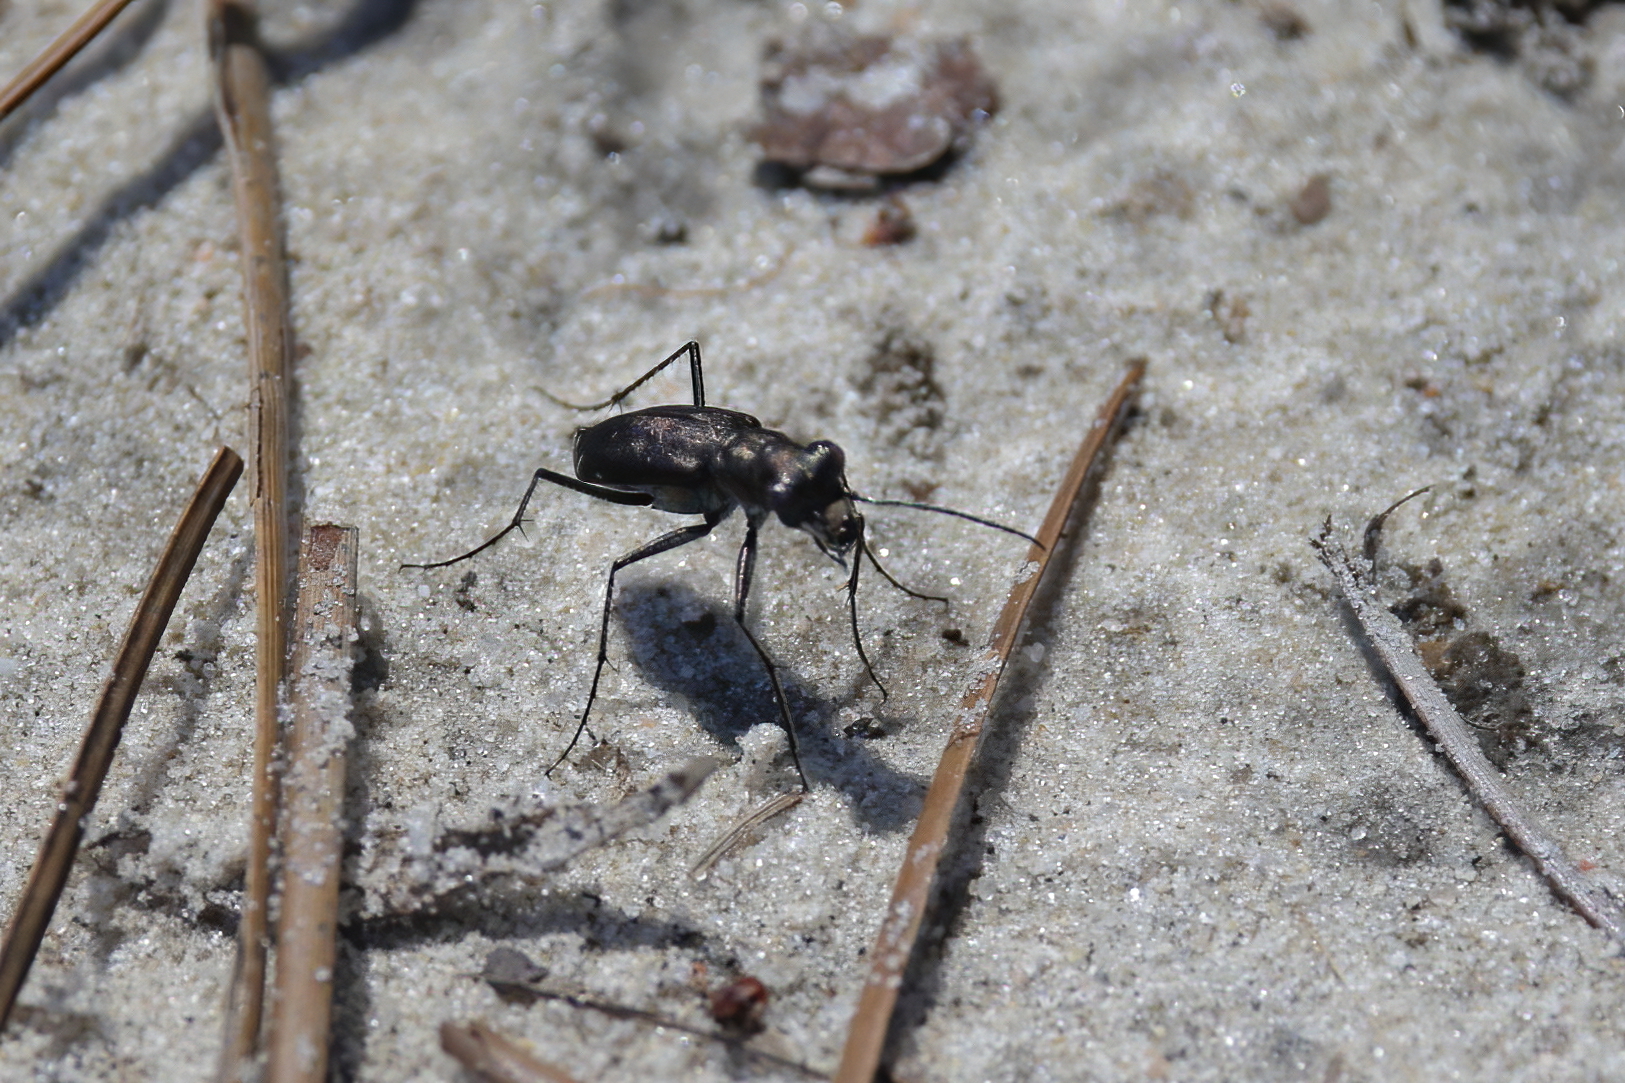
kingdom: Animalia
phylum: Arthropoda
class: Insecta
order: Coleoptera
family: Carabidae
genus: Cicindela
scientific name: Cicindela punctulata
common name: Punctured tiger beetle
